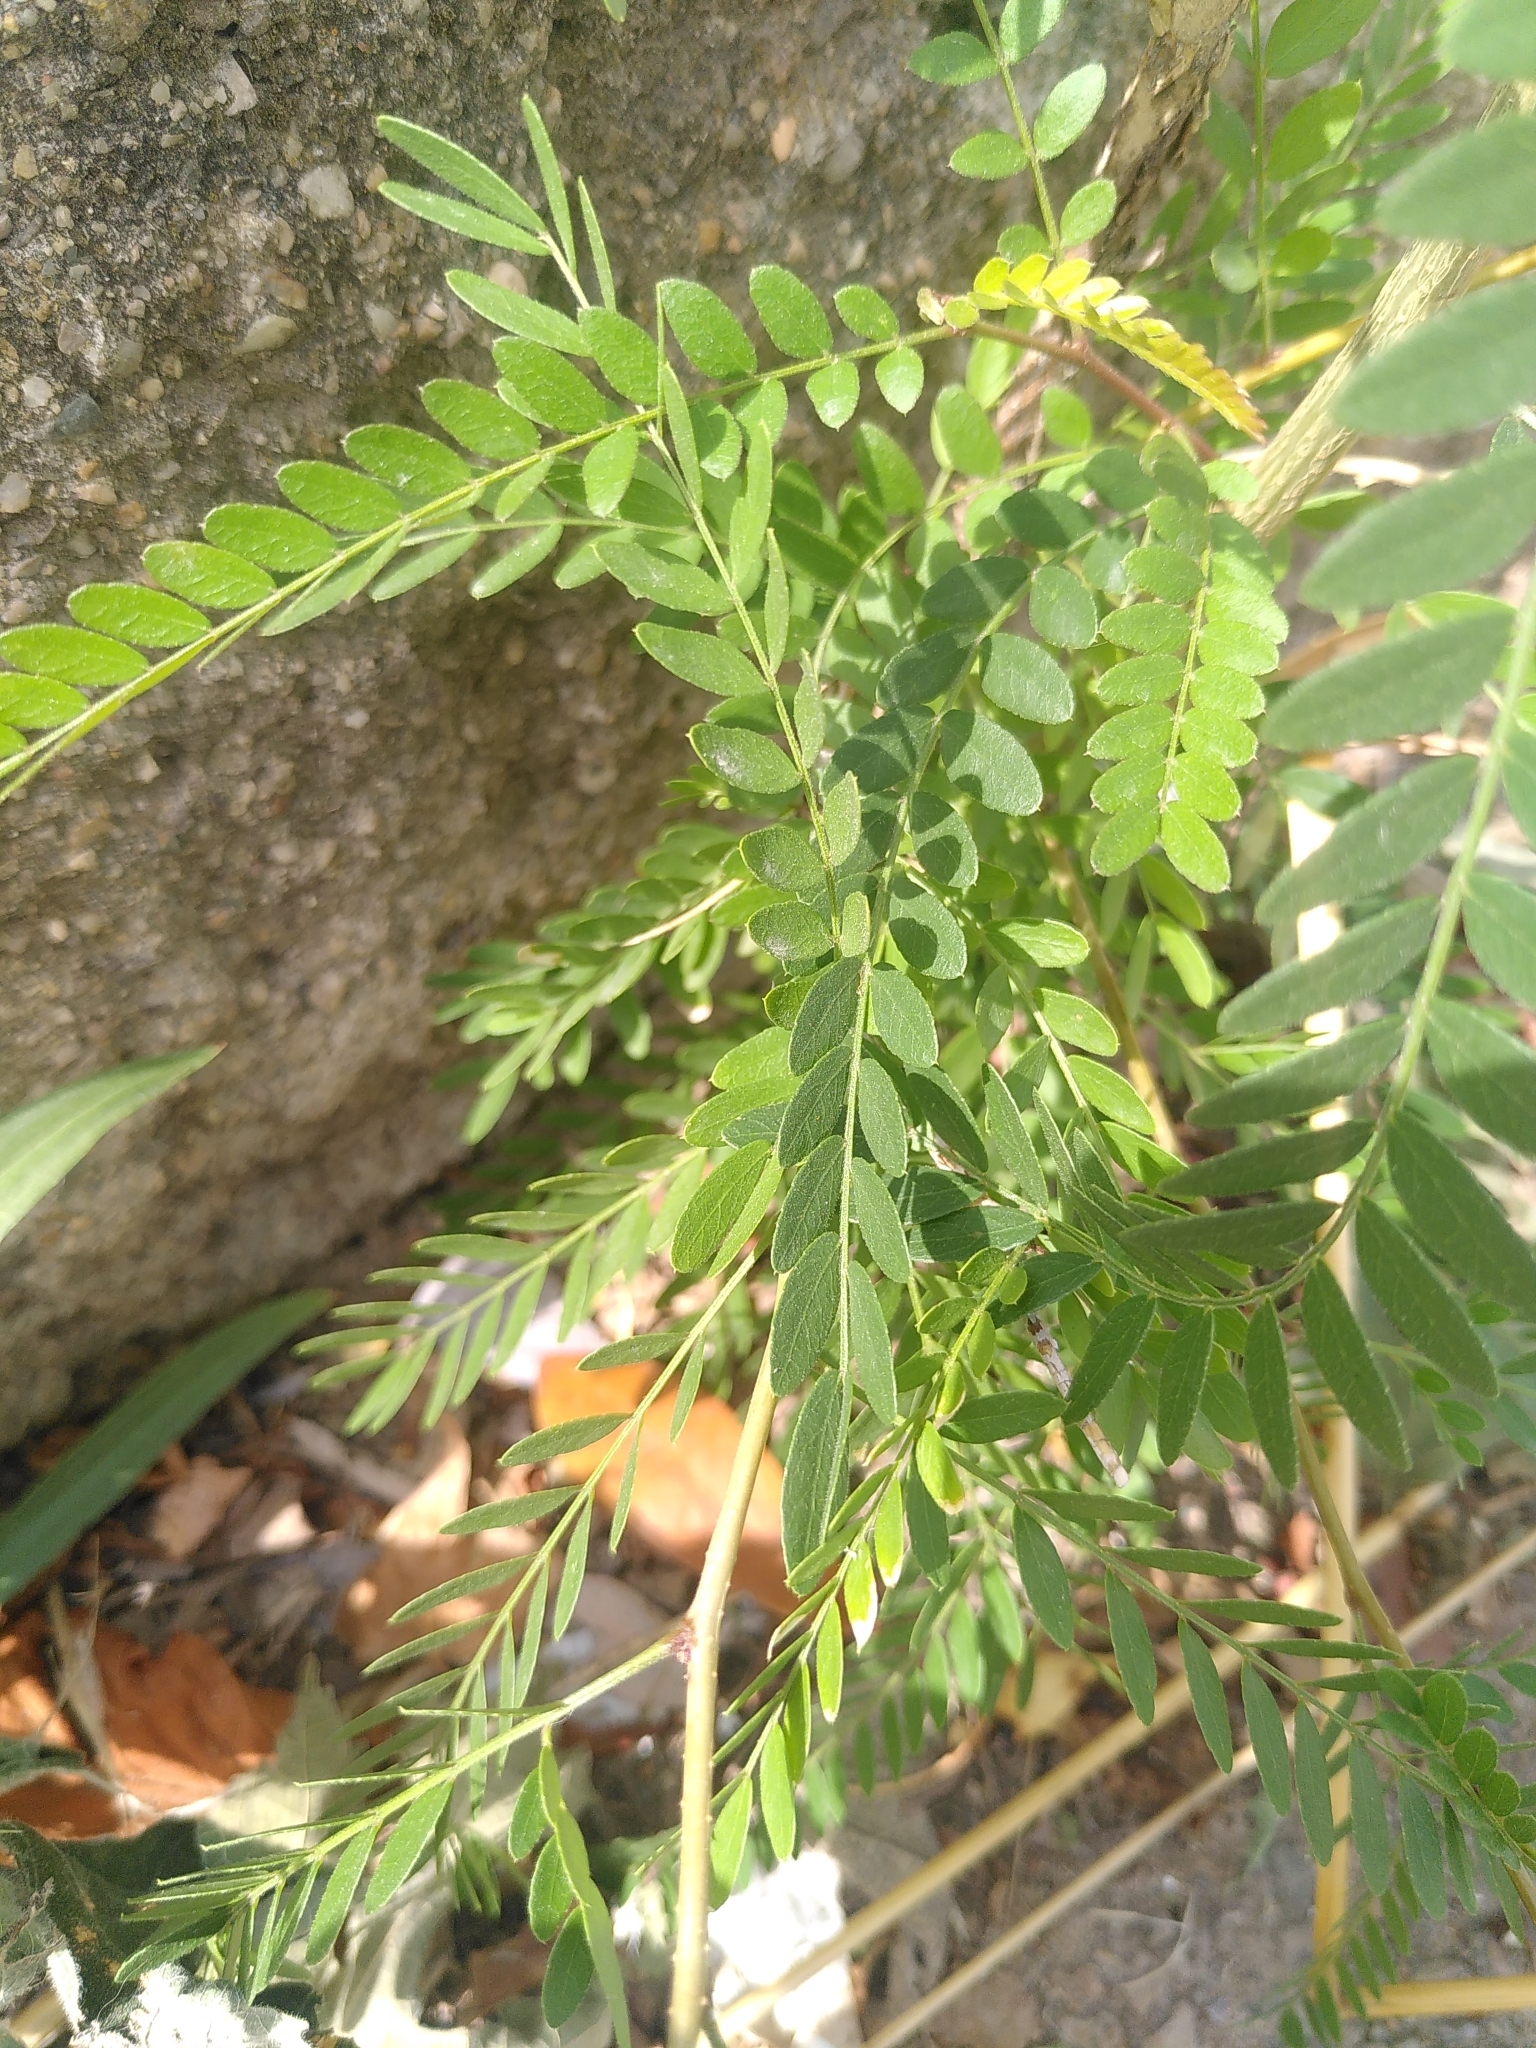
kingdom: Plantae
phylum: Tracheophyta
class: Magnoliopsida
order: Fabales
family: Fabaceae
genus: Gleditsia
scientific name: Gleditsia triacanthos
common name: Common honeylocust
